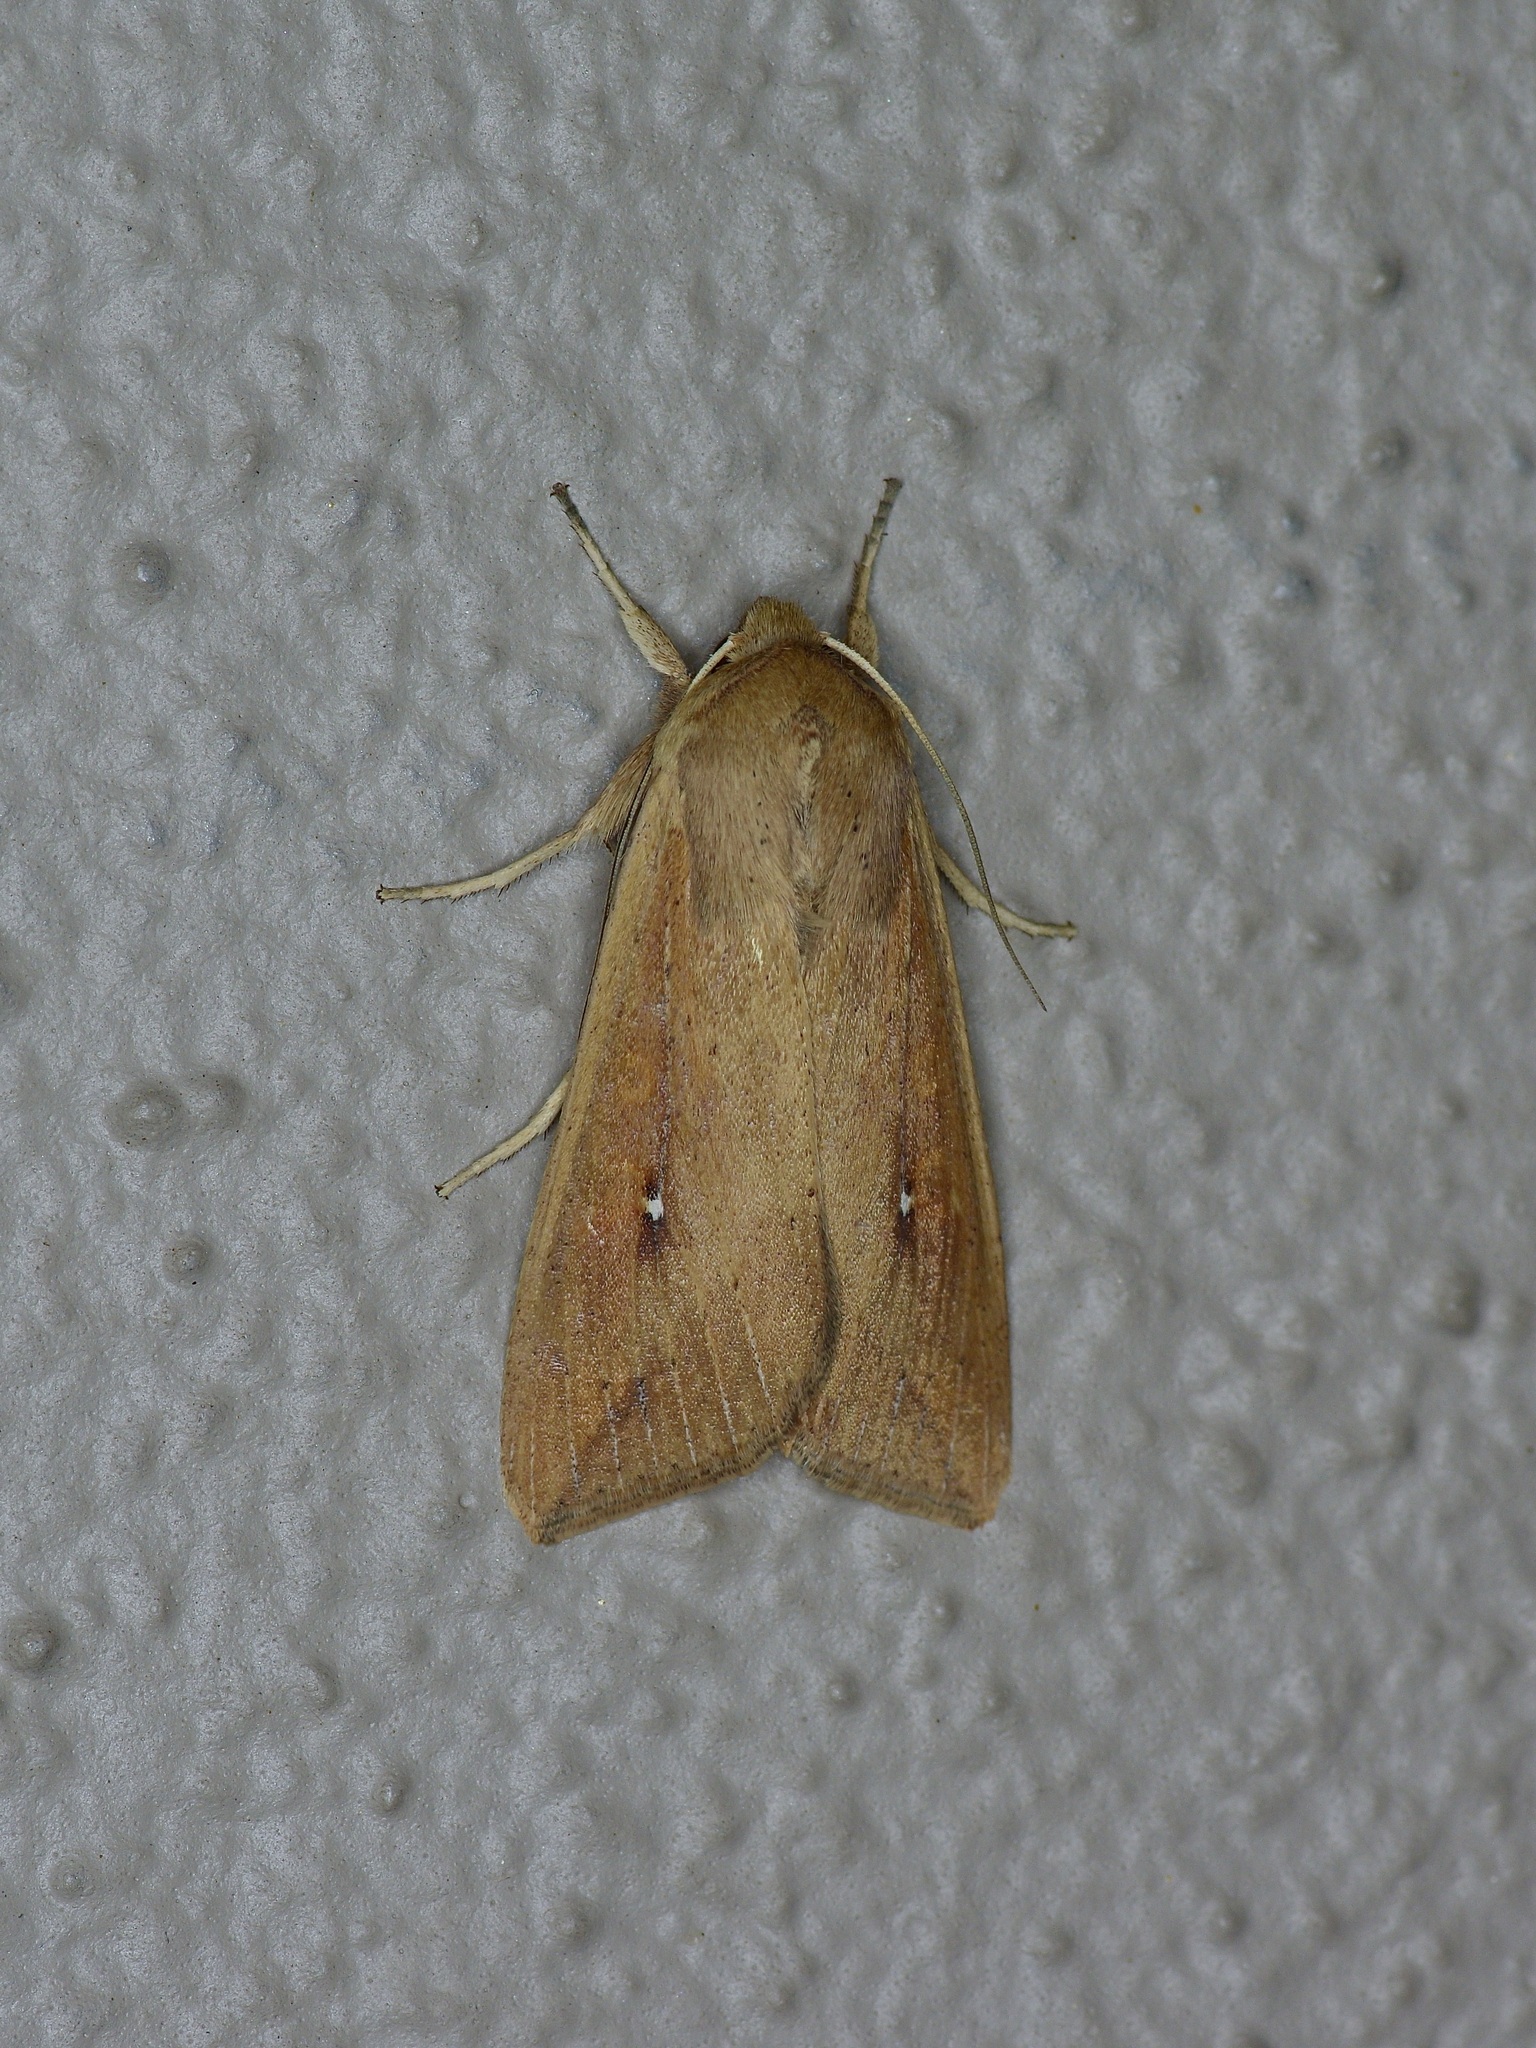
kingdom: Animalia
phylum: Arthropoda
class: Insecta
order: Lepidoptera
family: Noctuidae
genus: Mythimna
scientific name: Mythimna unipuncta
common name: White-speck
